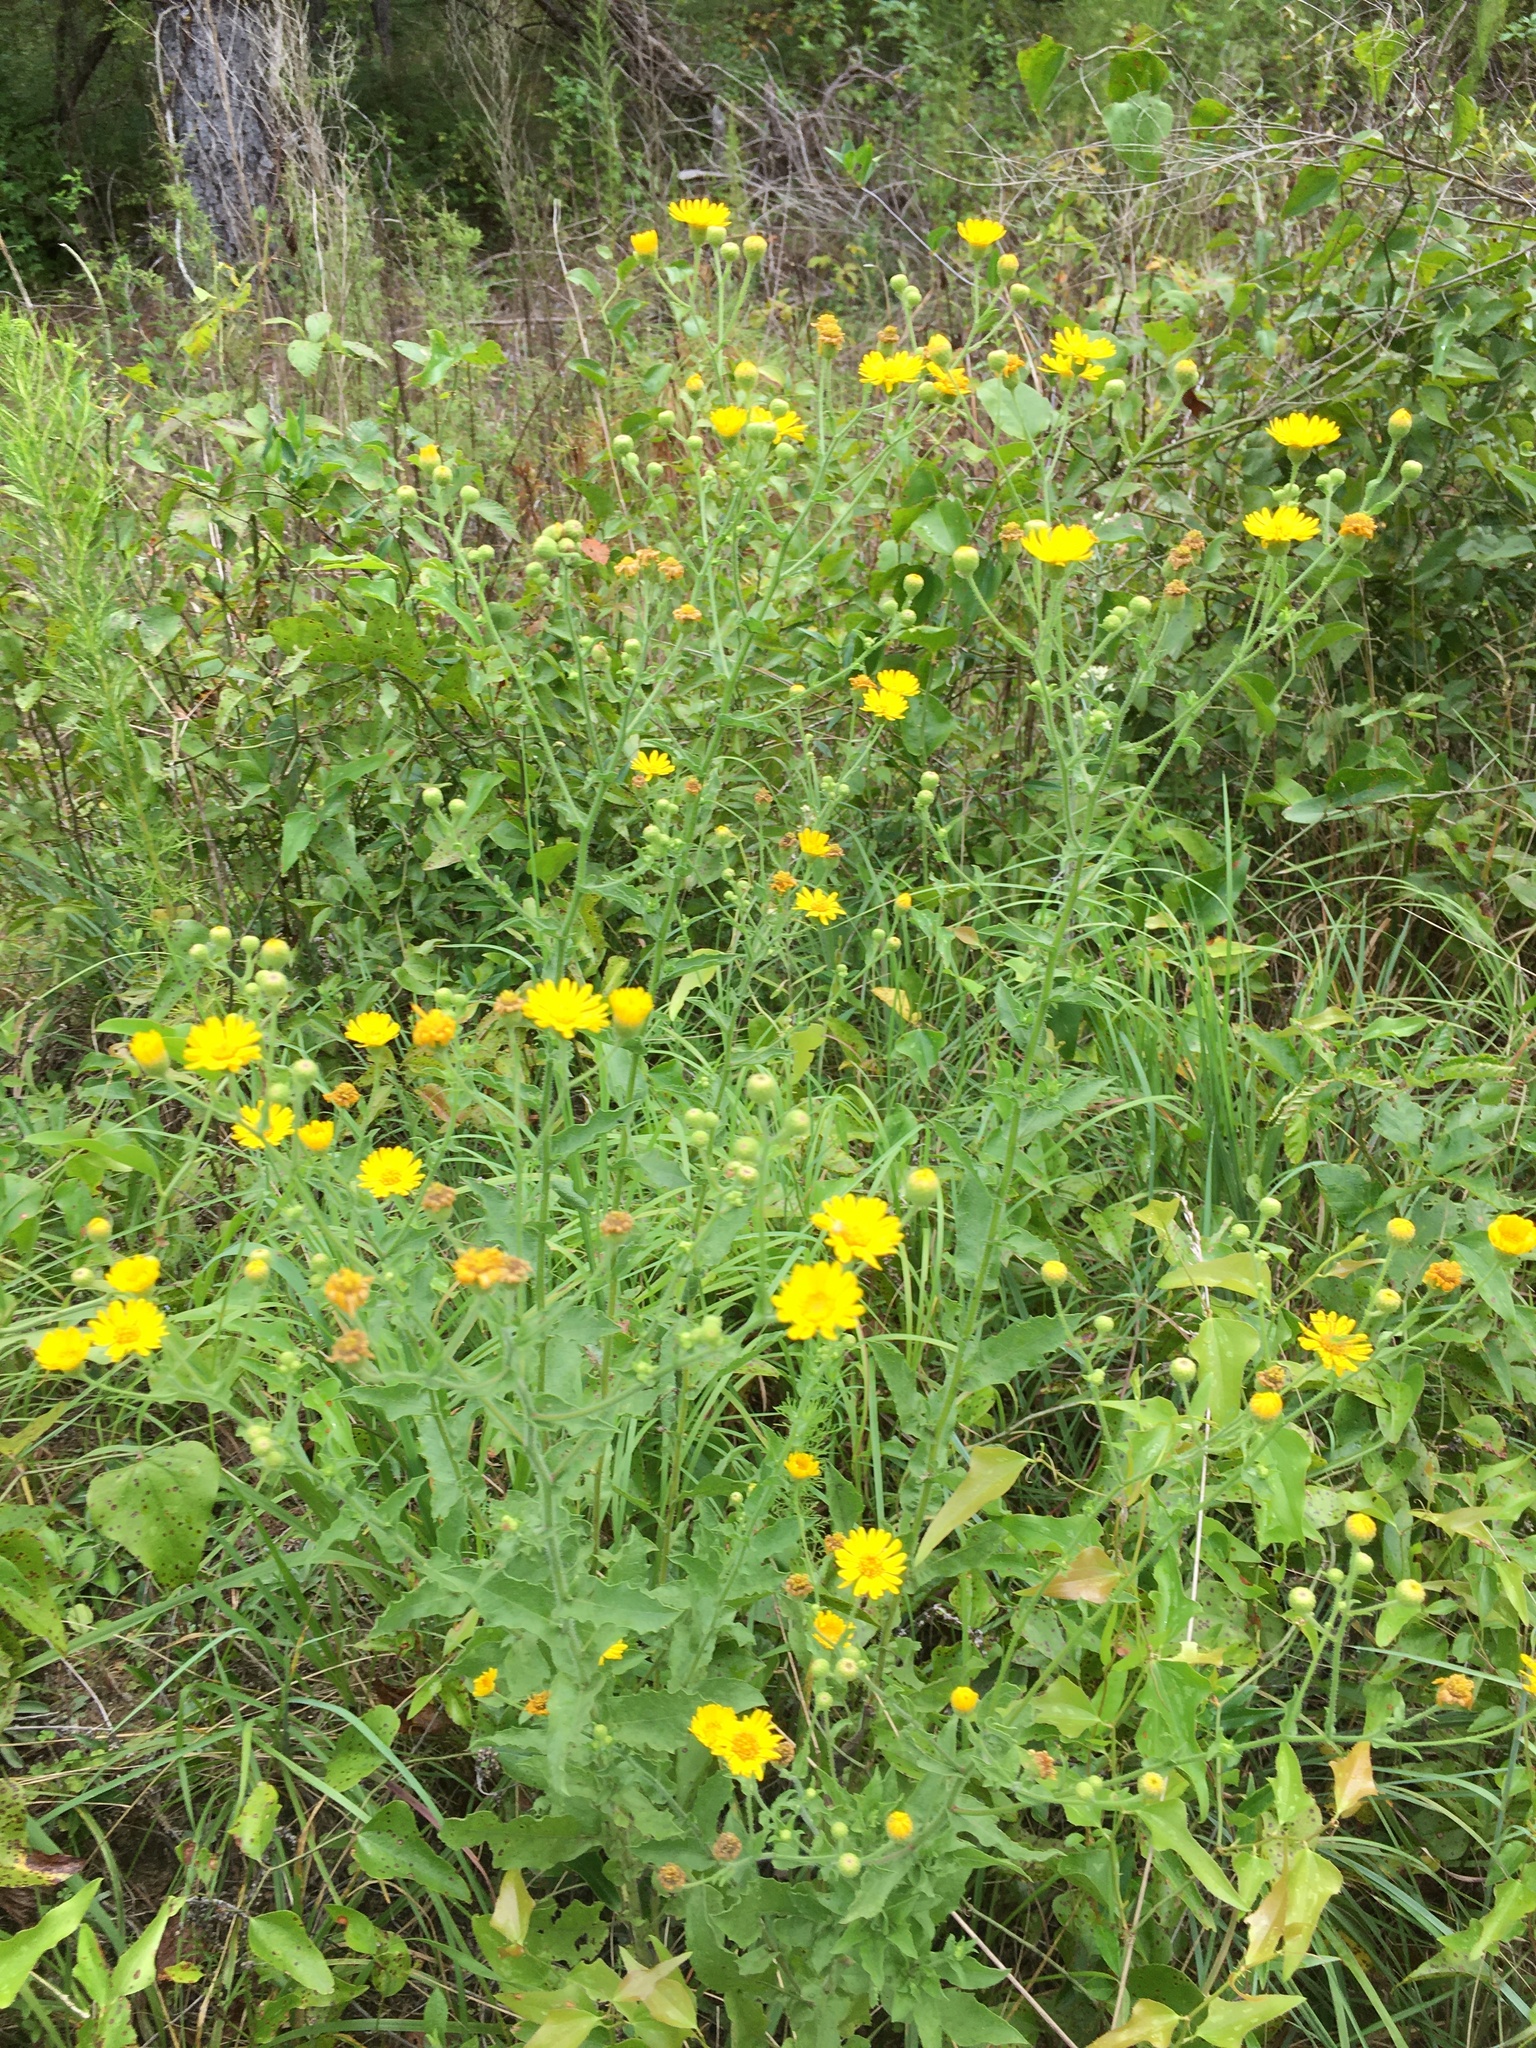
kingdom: Plantae
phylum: Tracheophyta
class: Magnoliopsida
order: Asterales
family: Asteraceae
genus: Heterotheca
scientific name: Heterotheca subaxillaris
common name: Camphorweed
